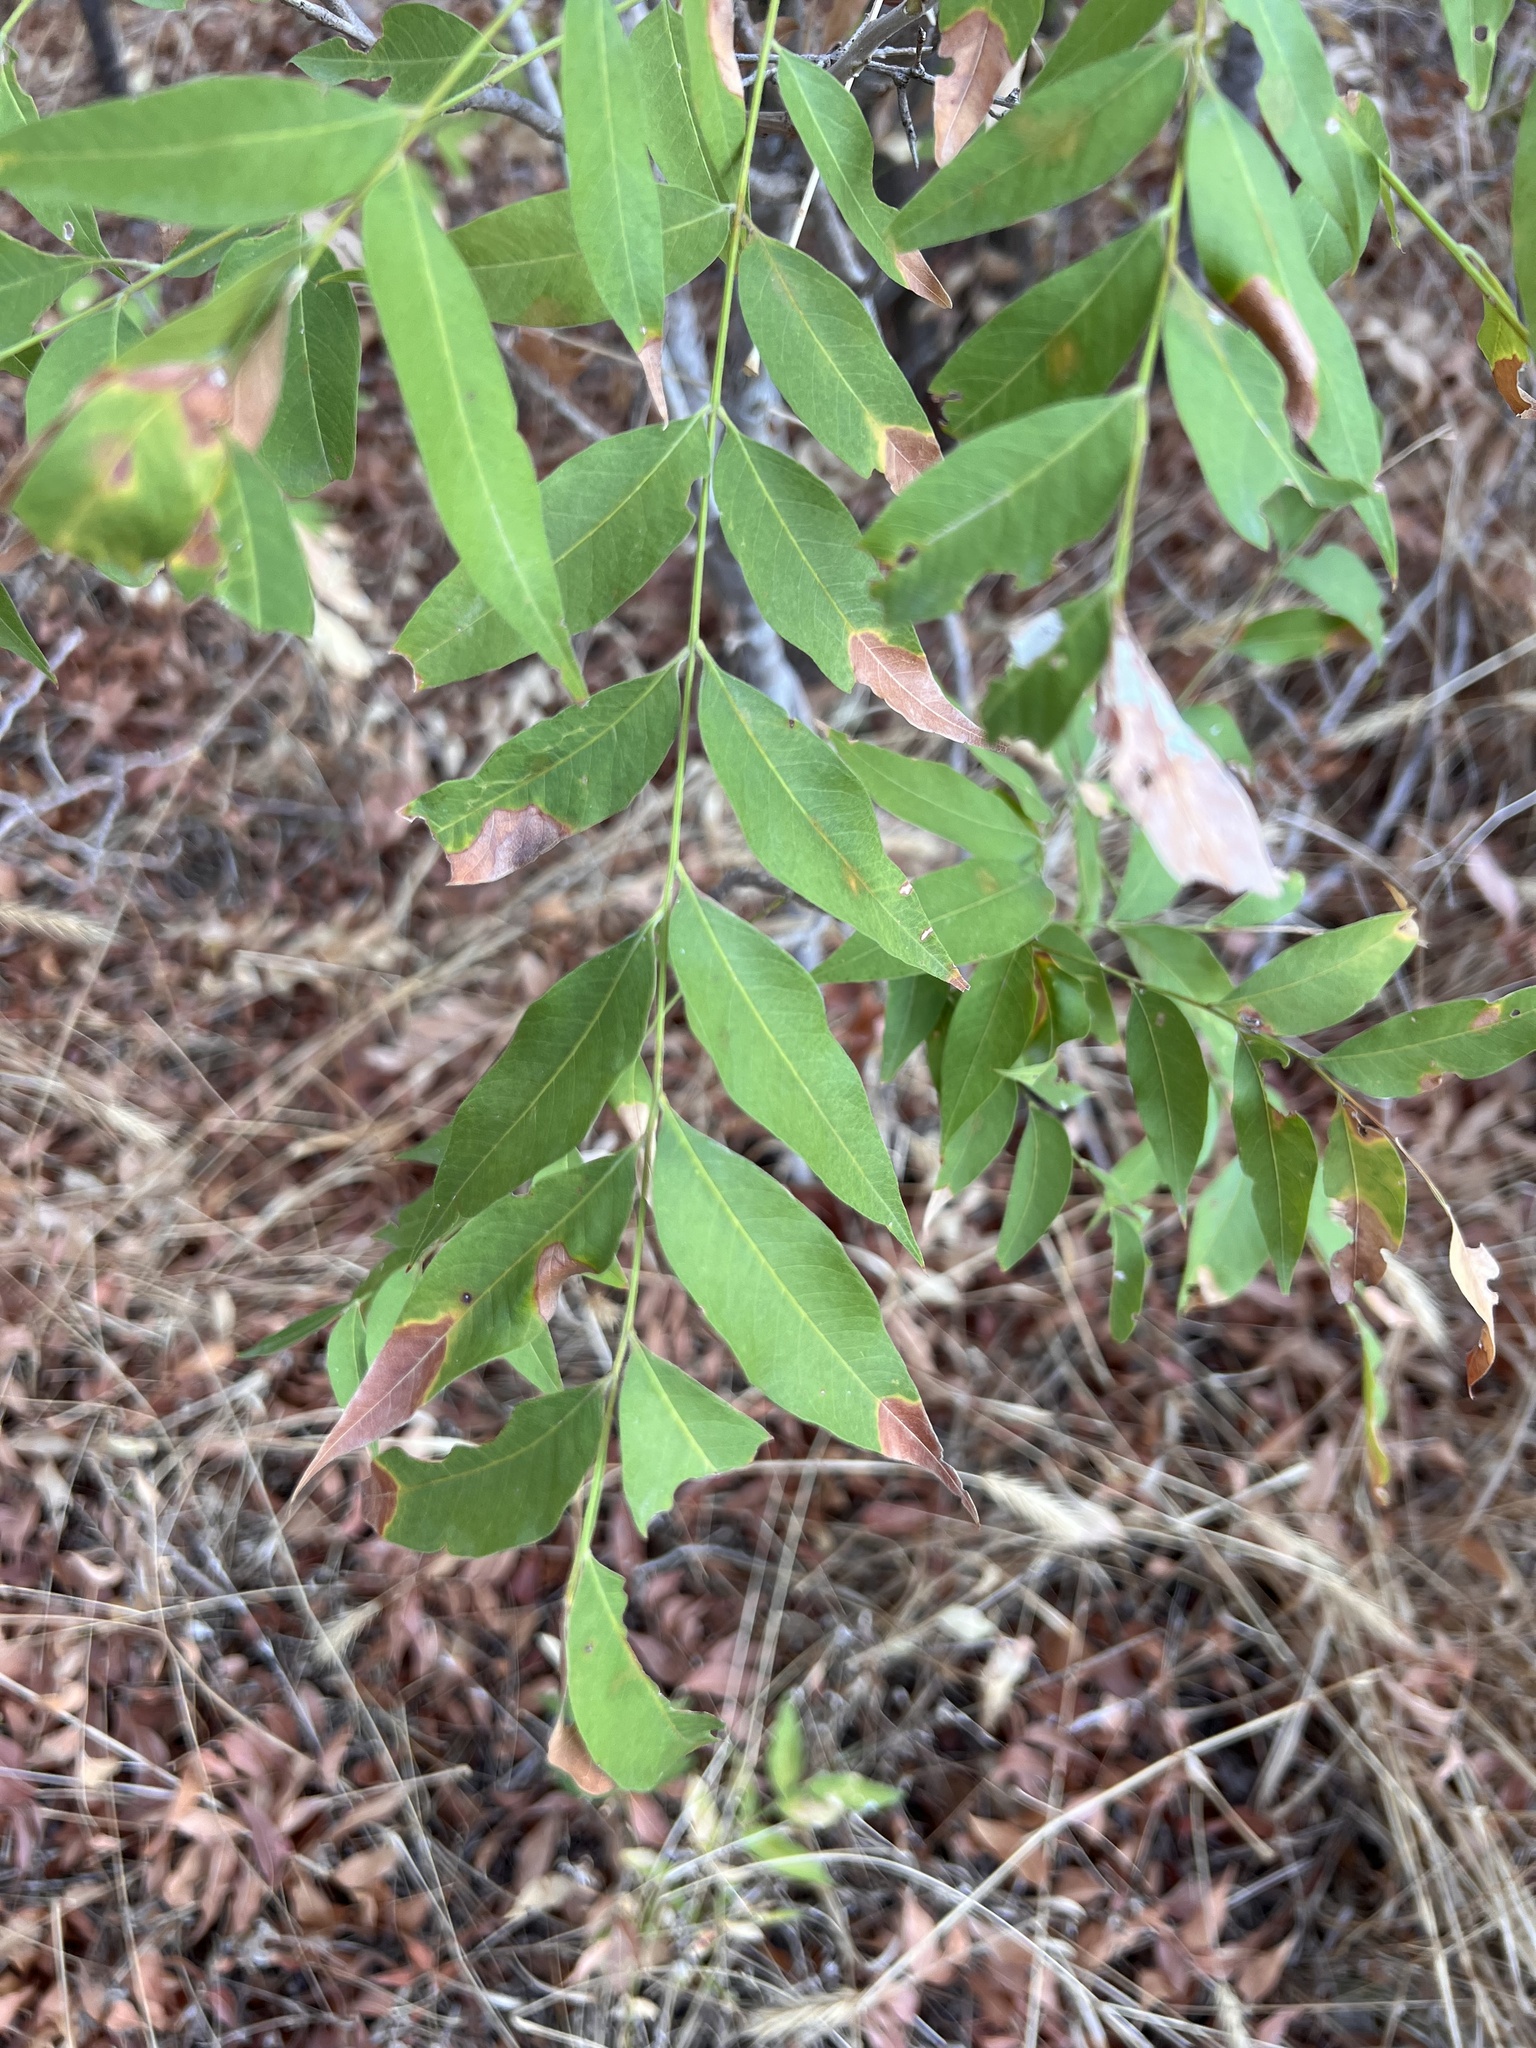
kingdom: Plantae
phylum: Tracheophyta
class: Magnoliopsida
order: Sapindales
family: Sapindaceae
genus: Sapindus
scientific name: Sapindus drummondii
